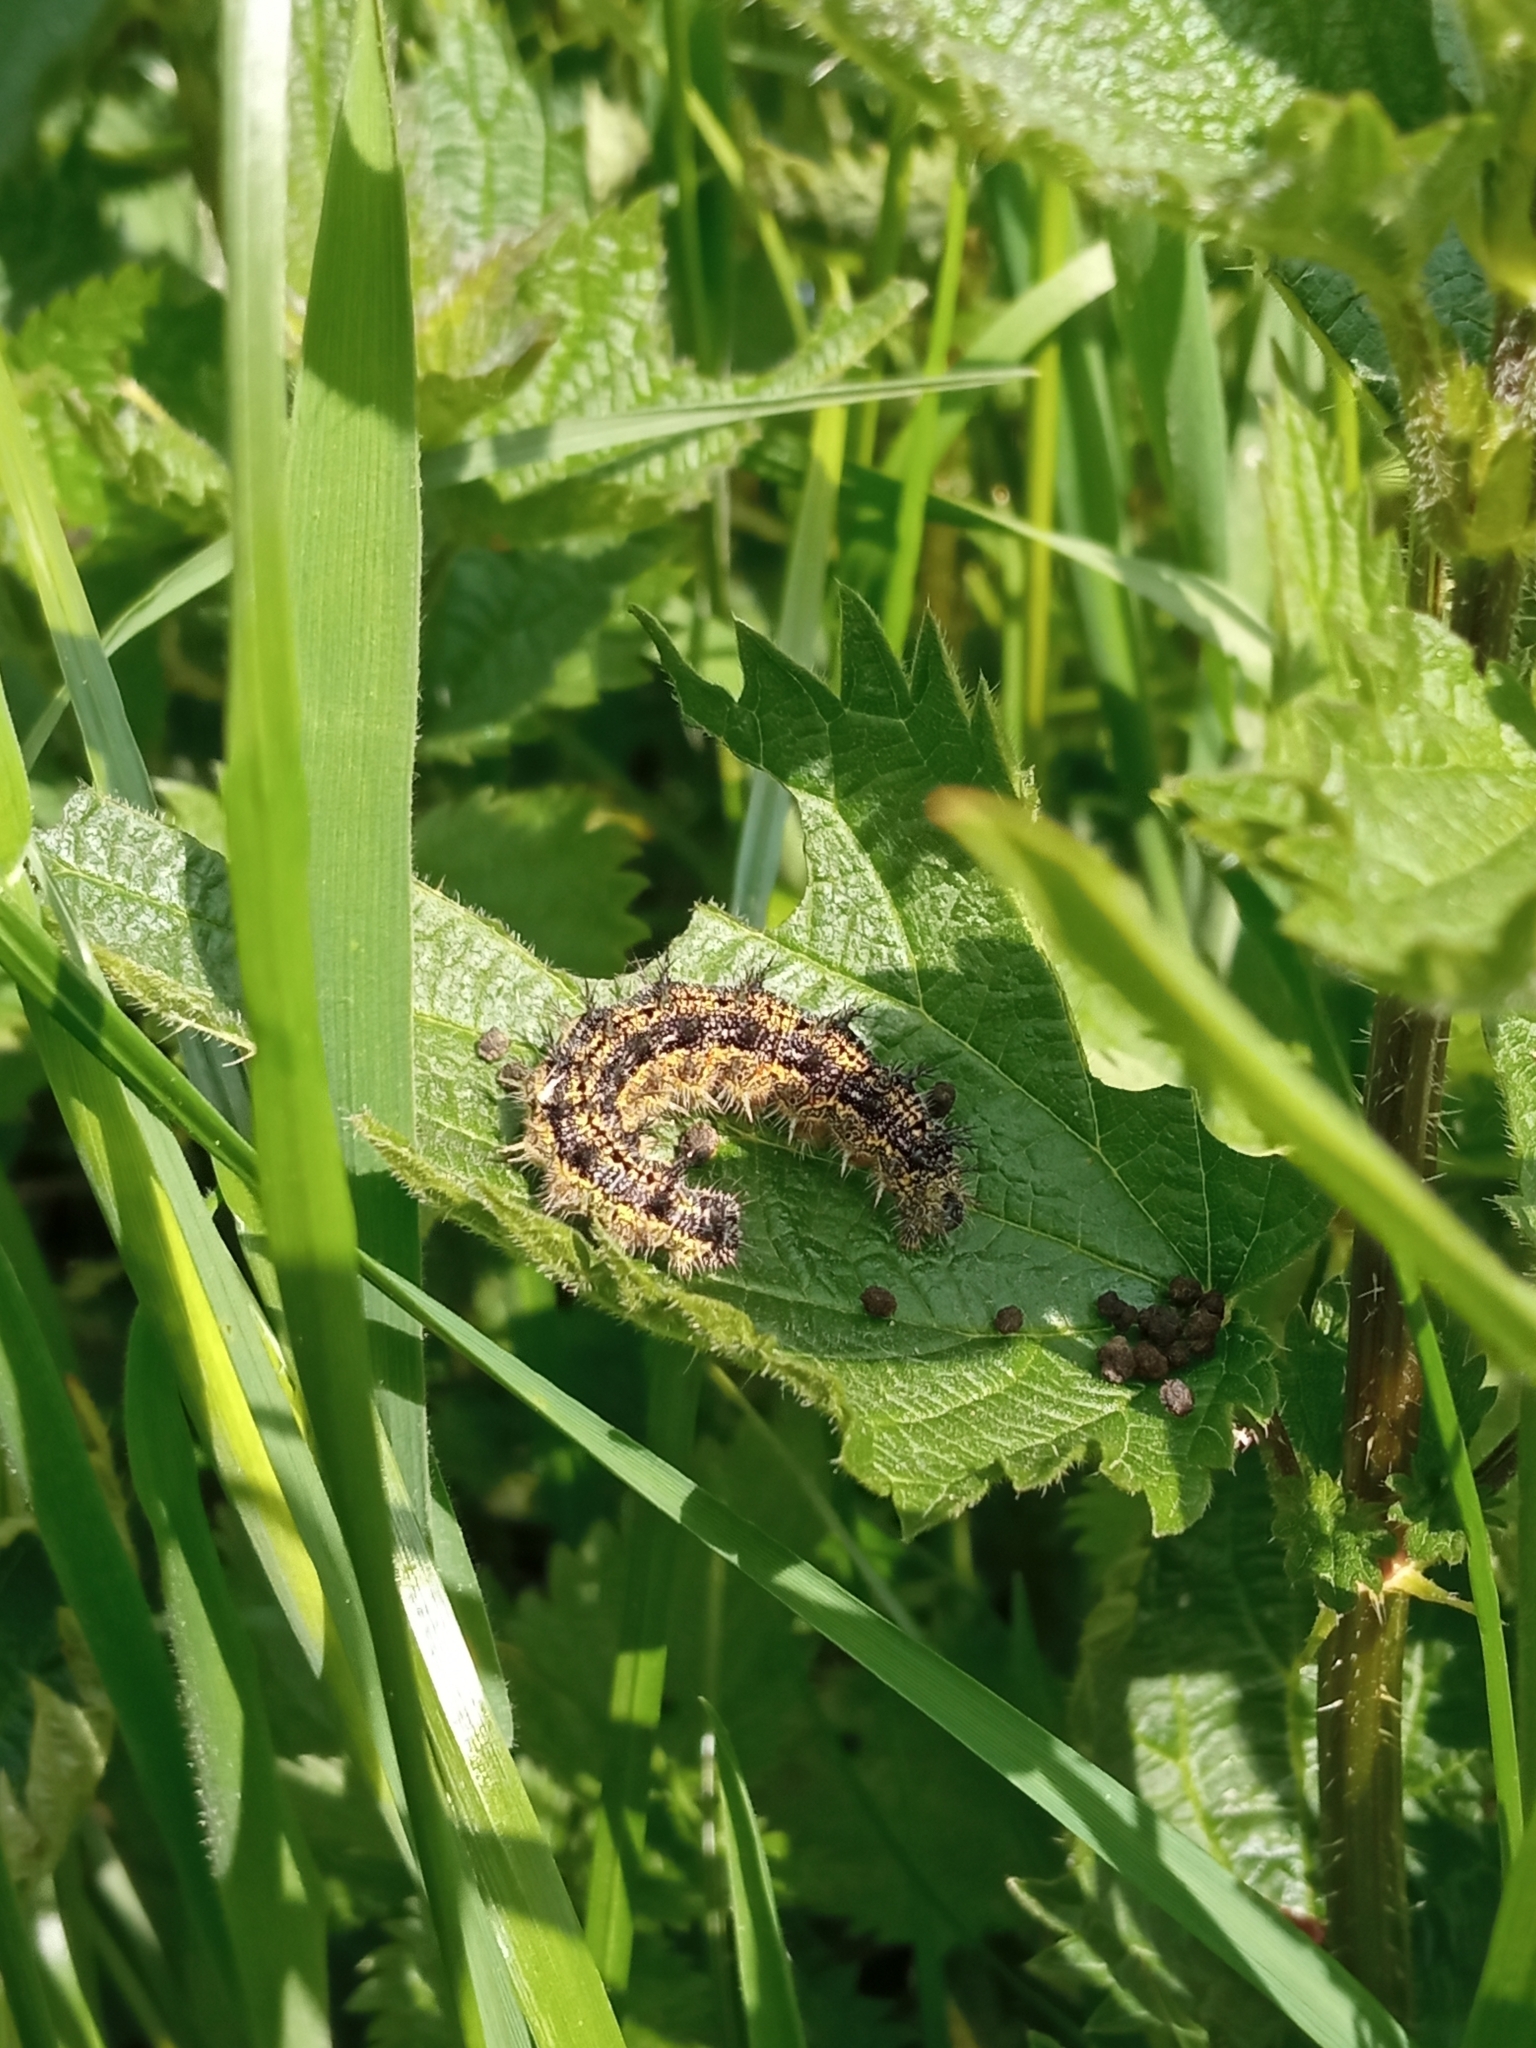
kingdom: Animalia
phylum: Arthropoda
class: Insecta
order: Lepidoptera
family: Nymphalidae
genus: Aglais
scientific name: Aglais urticae
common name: Small tortoiseshell
